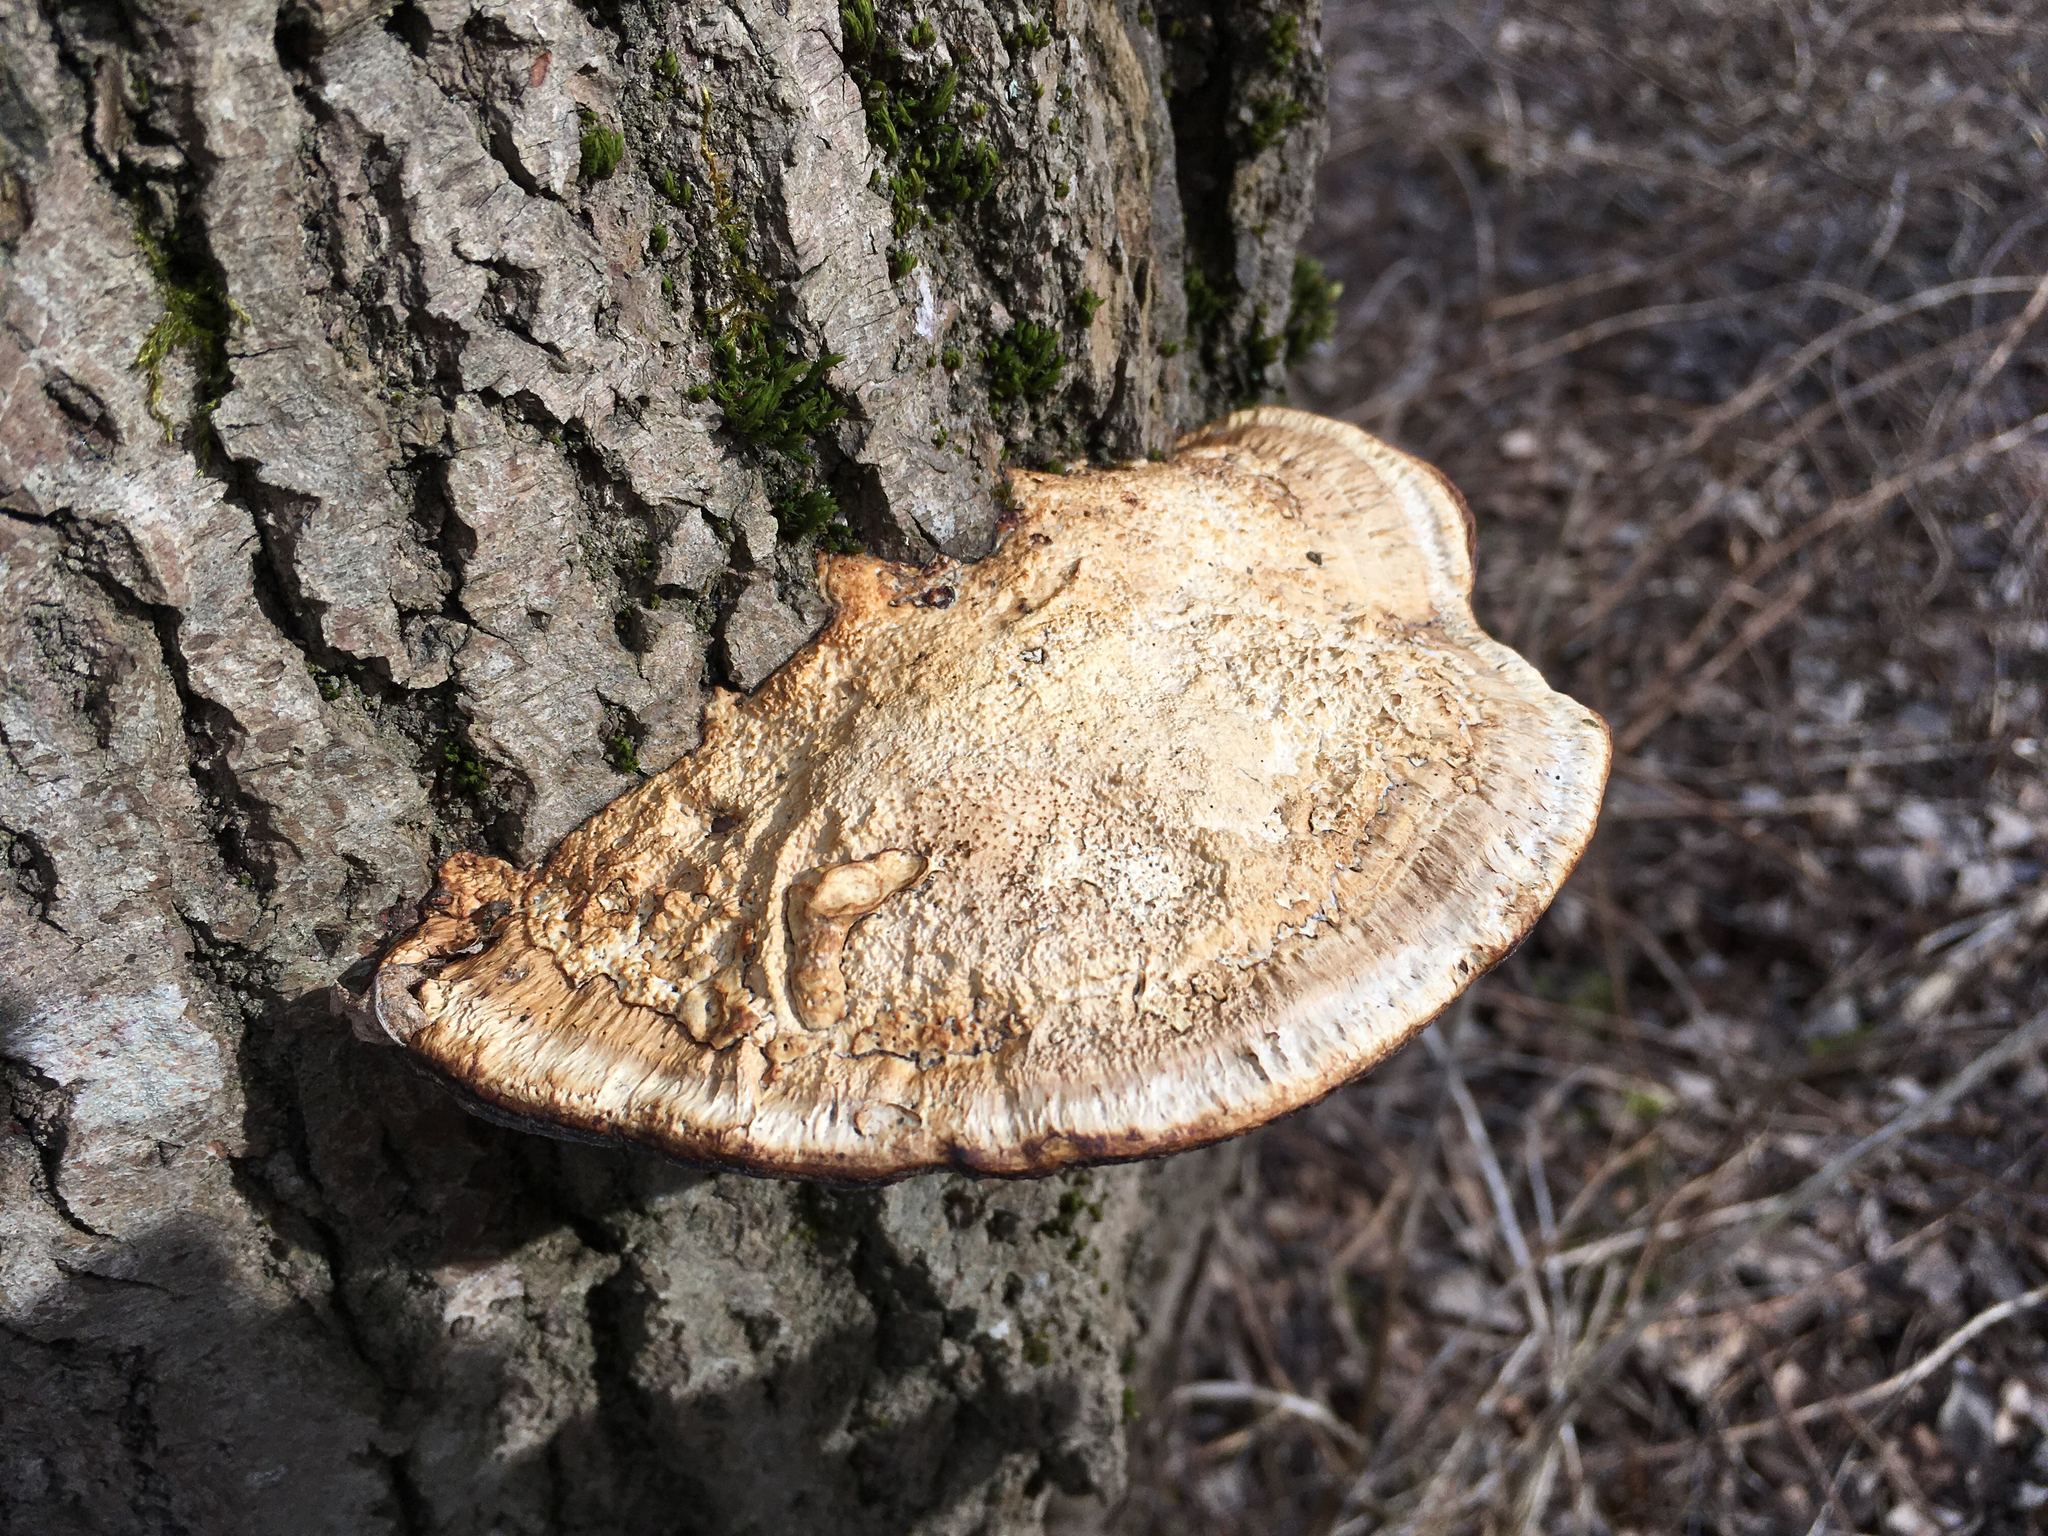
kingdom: Fungi
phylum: Basidiomycota
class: Agaricomycetes
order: Polyporales
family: Polyporaceae
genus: Daedaleopsis
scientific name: Daedaleopsis confragosa
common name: Blushing bracket
